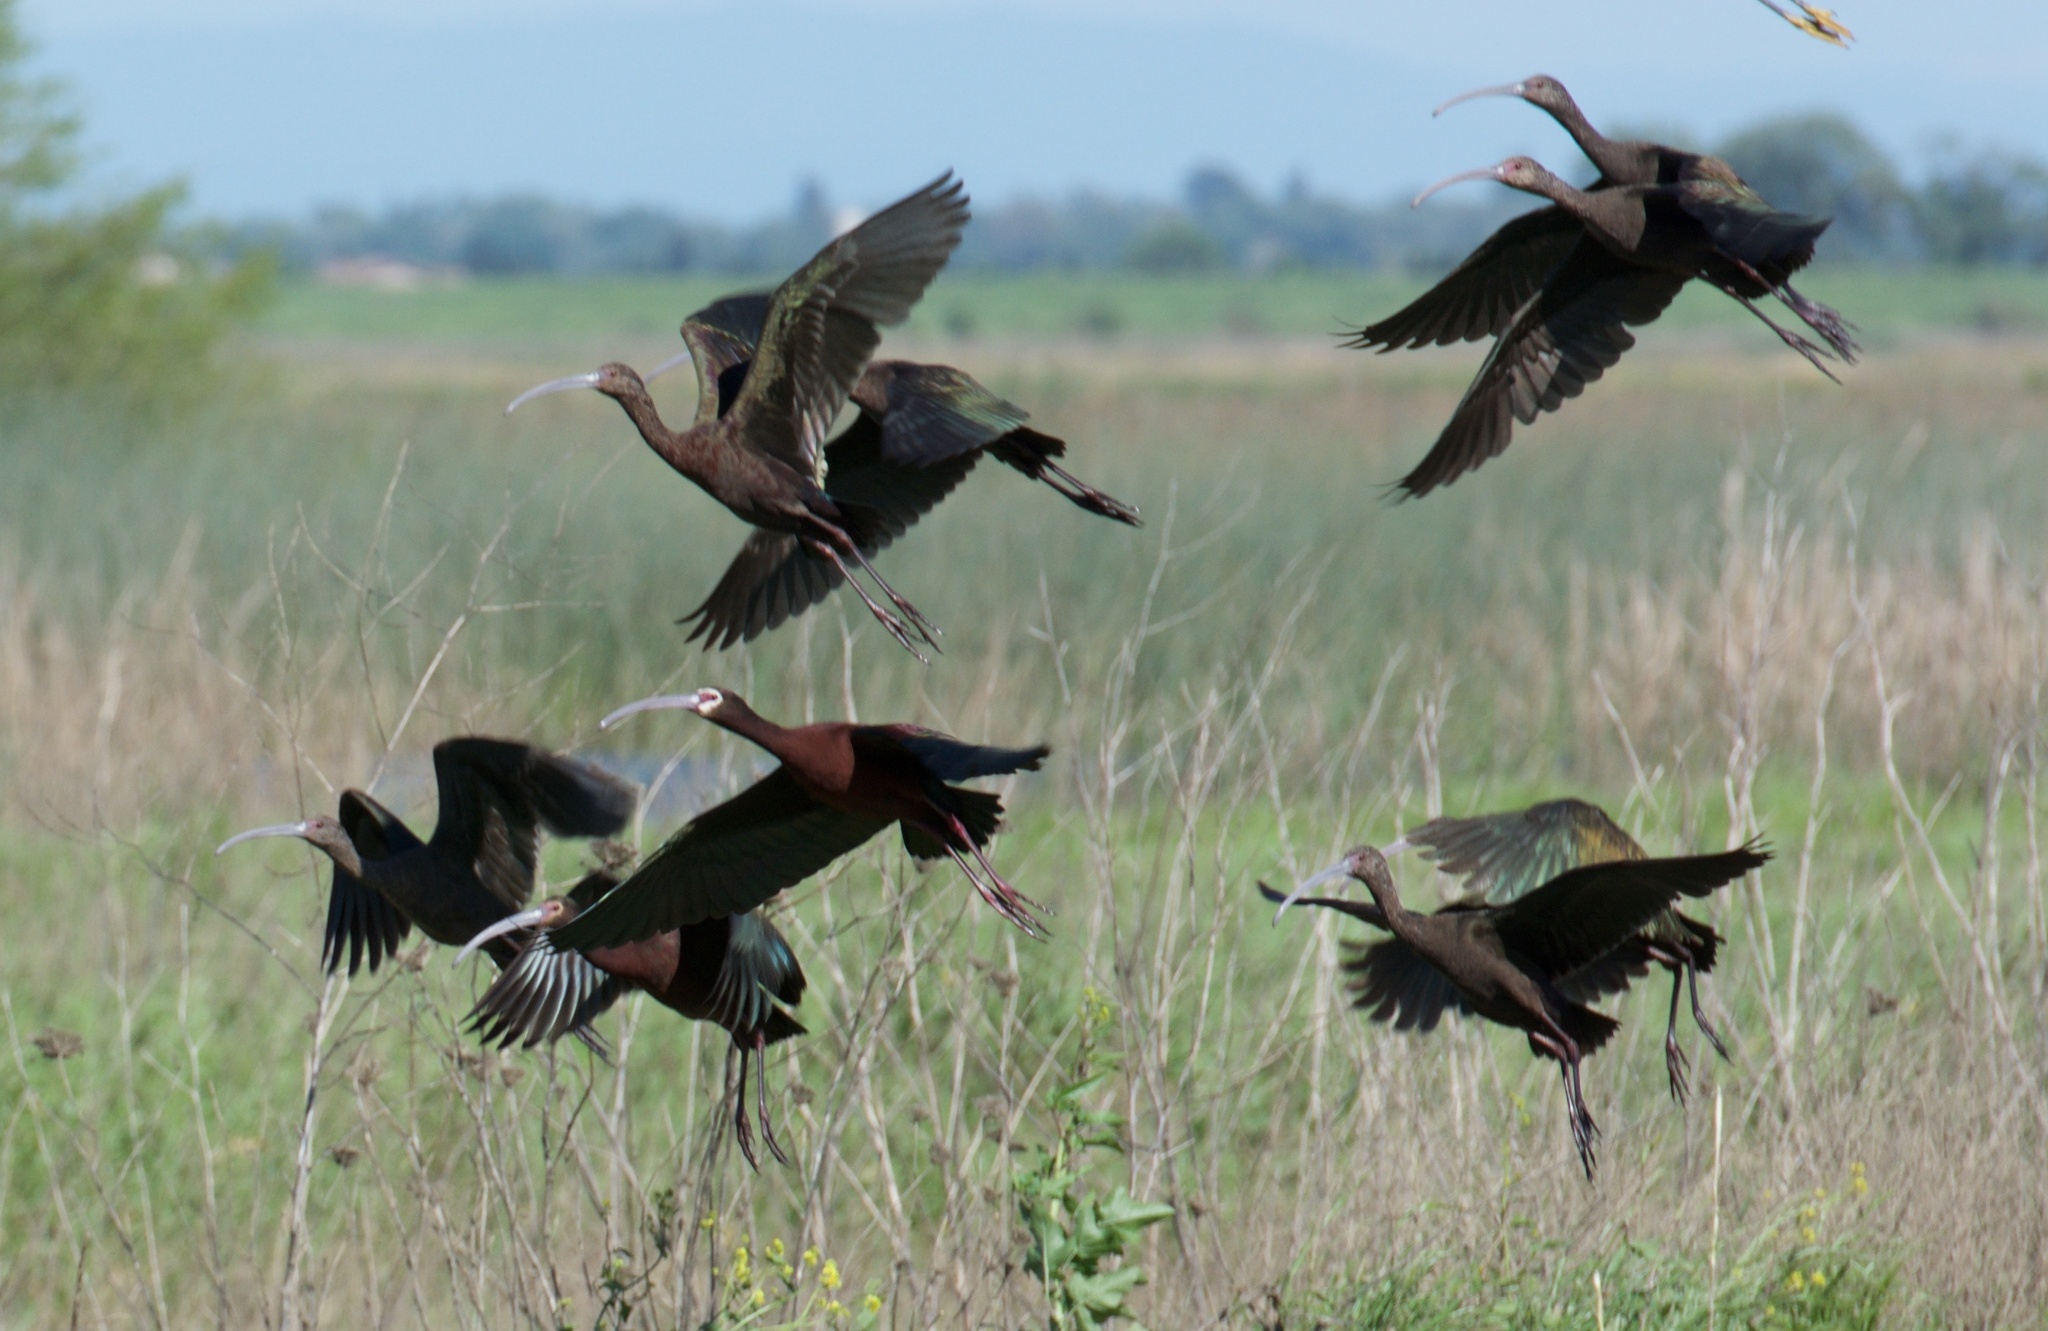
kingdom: Animalia
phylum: Chordata
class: Aves
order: Pelecaniformes
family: Threskiornithidae
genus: Plegadis
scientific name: Plegadis chihi
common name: White-faced ibis
